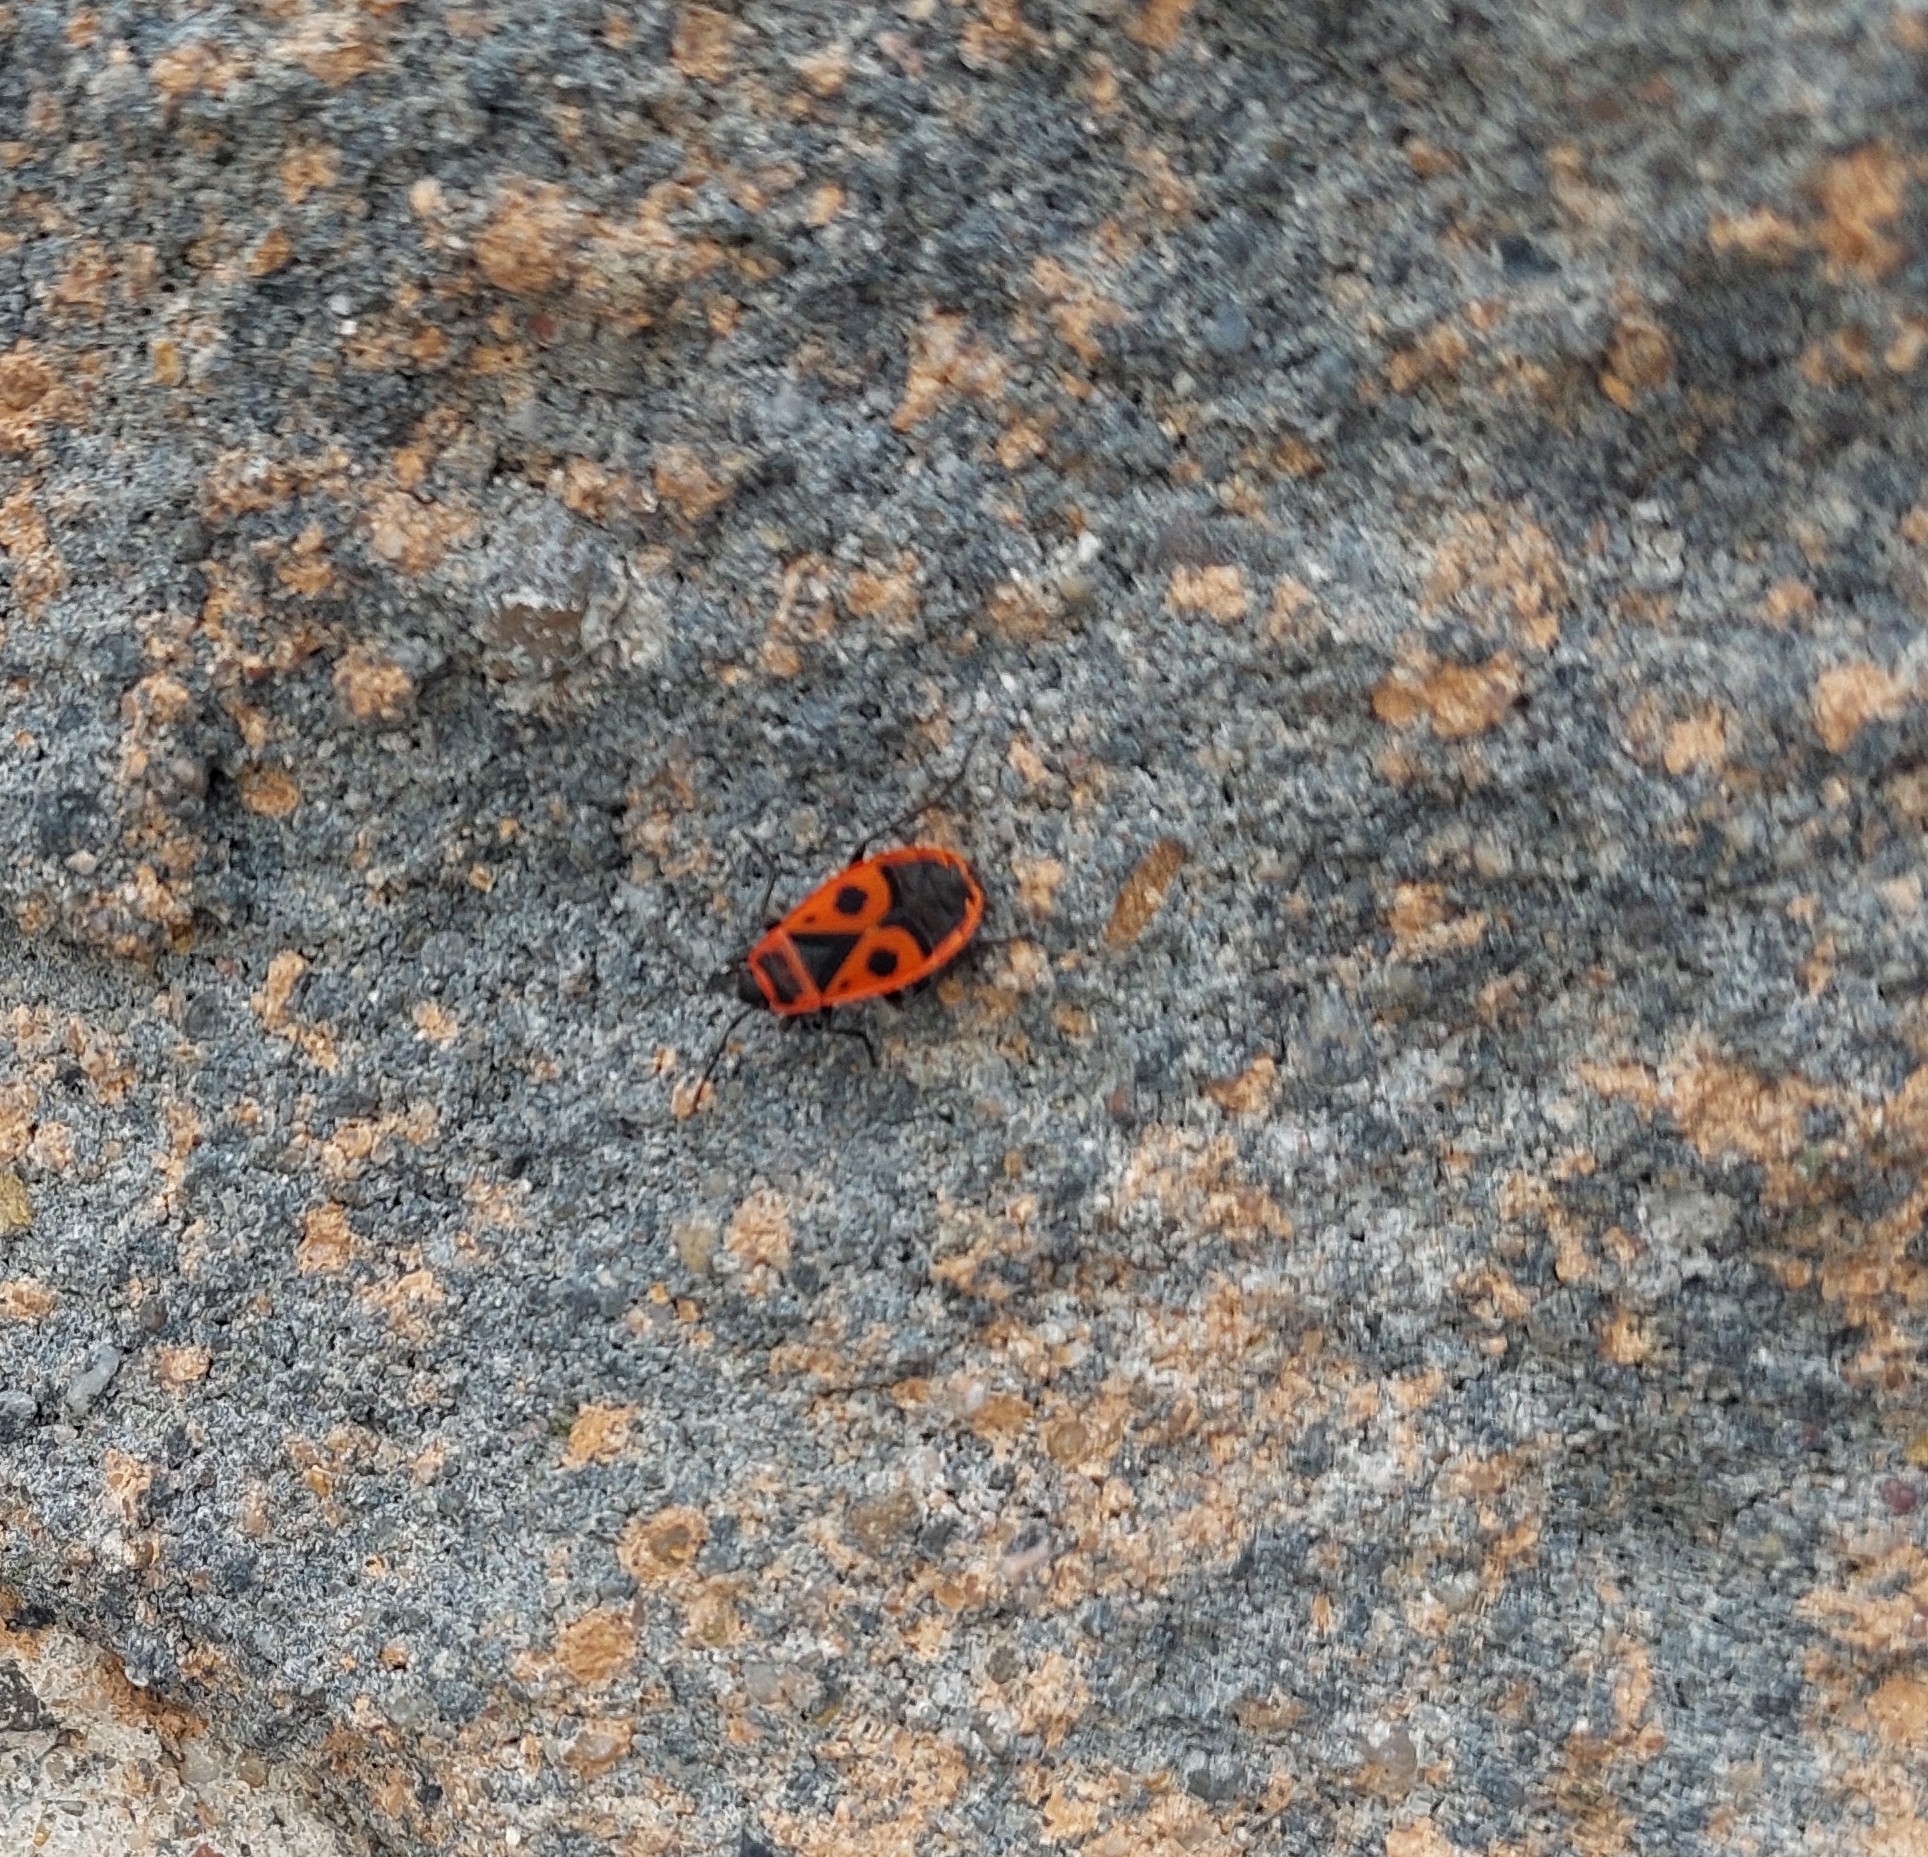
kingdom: Animalia
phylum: Arthropoda
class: Insecta
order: Hemiptera
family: Pyrrhocoridae
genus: Pyrrhocoris
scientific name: Pyrrhocoris apterus
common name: Firebug
